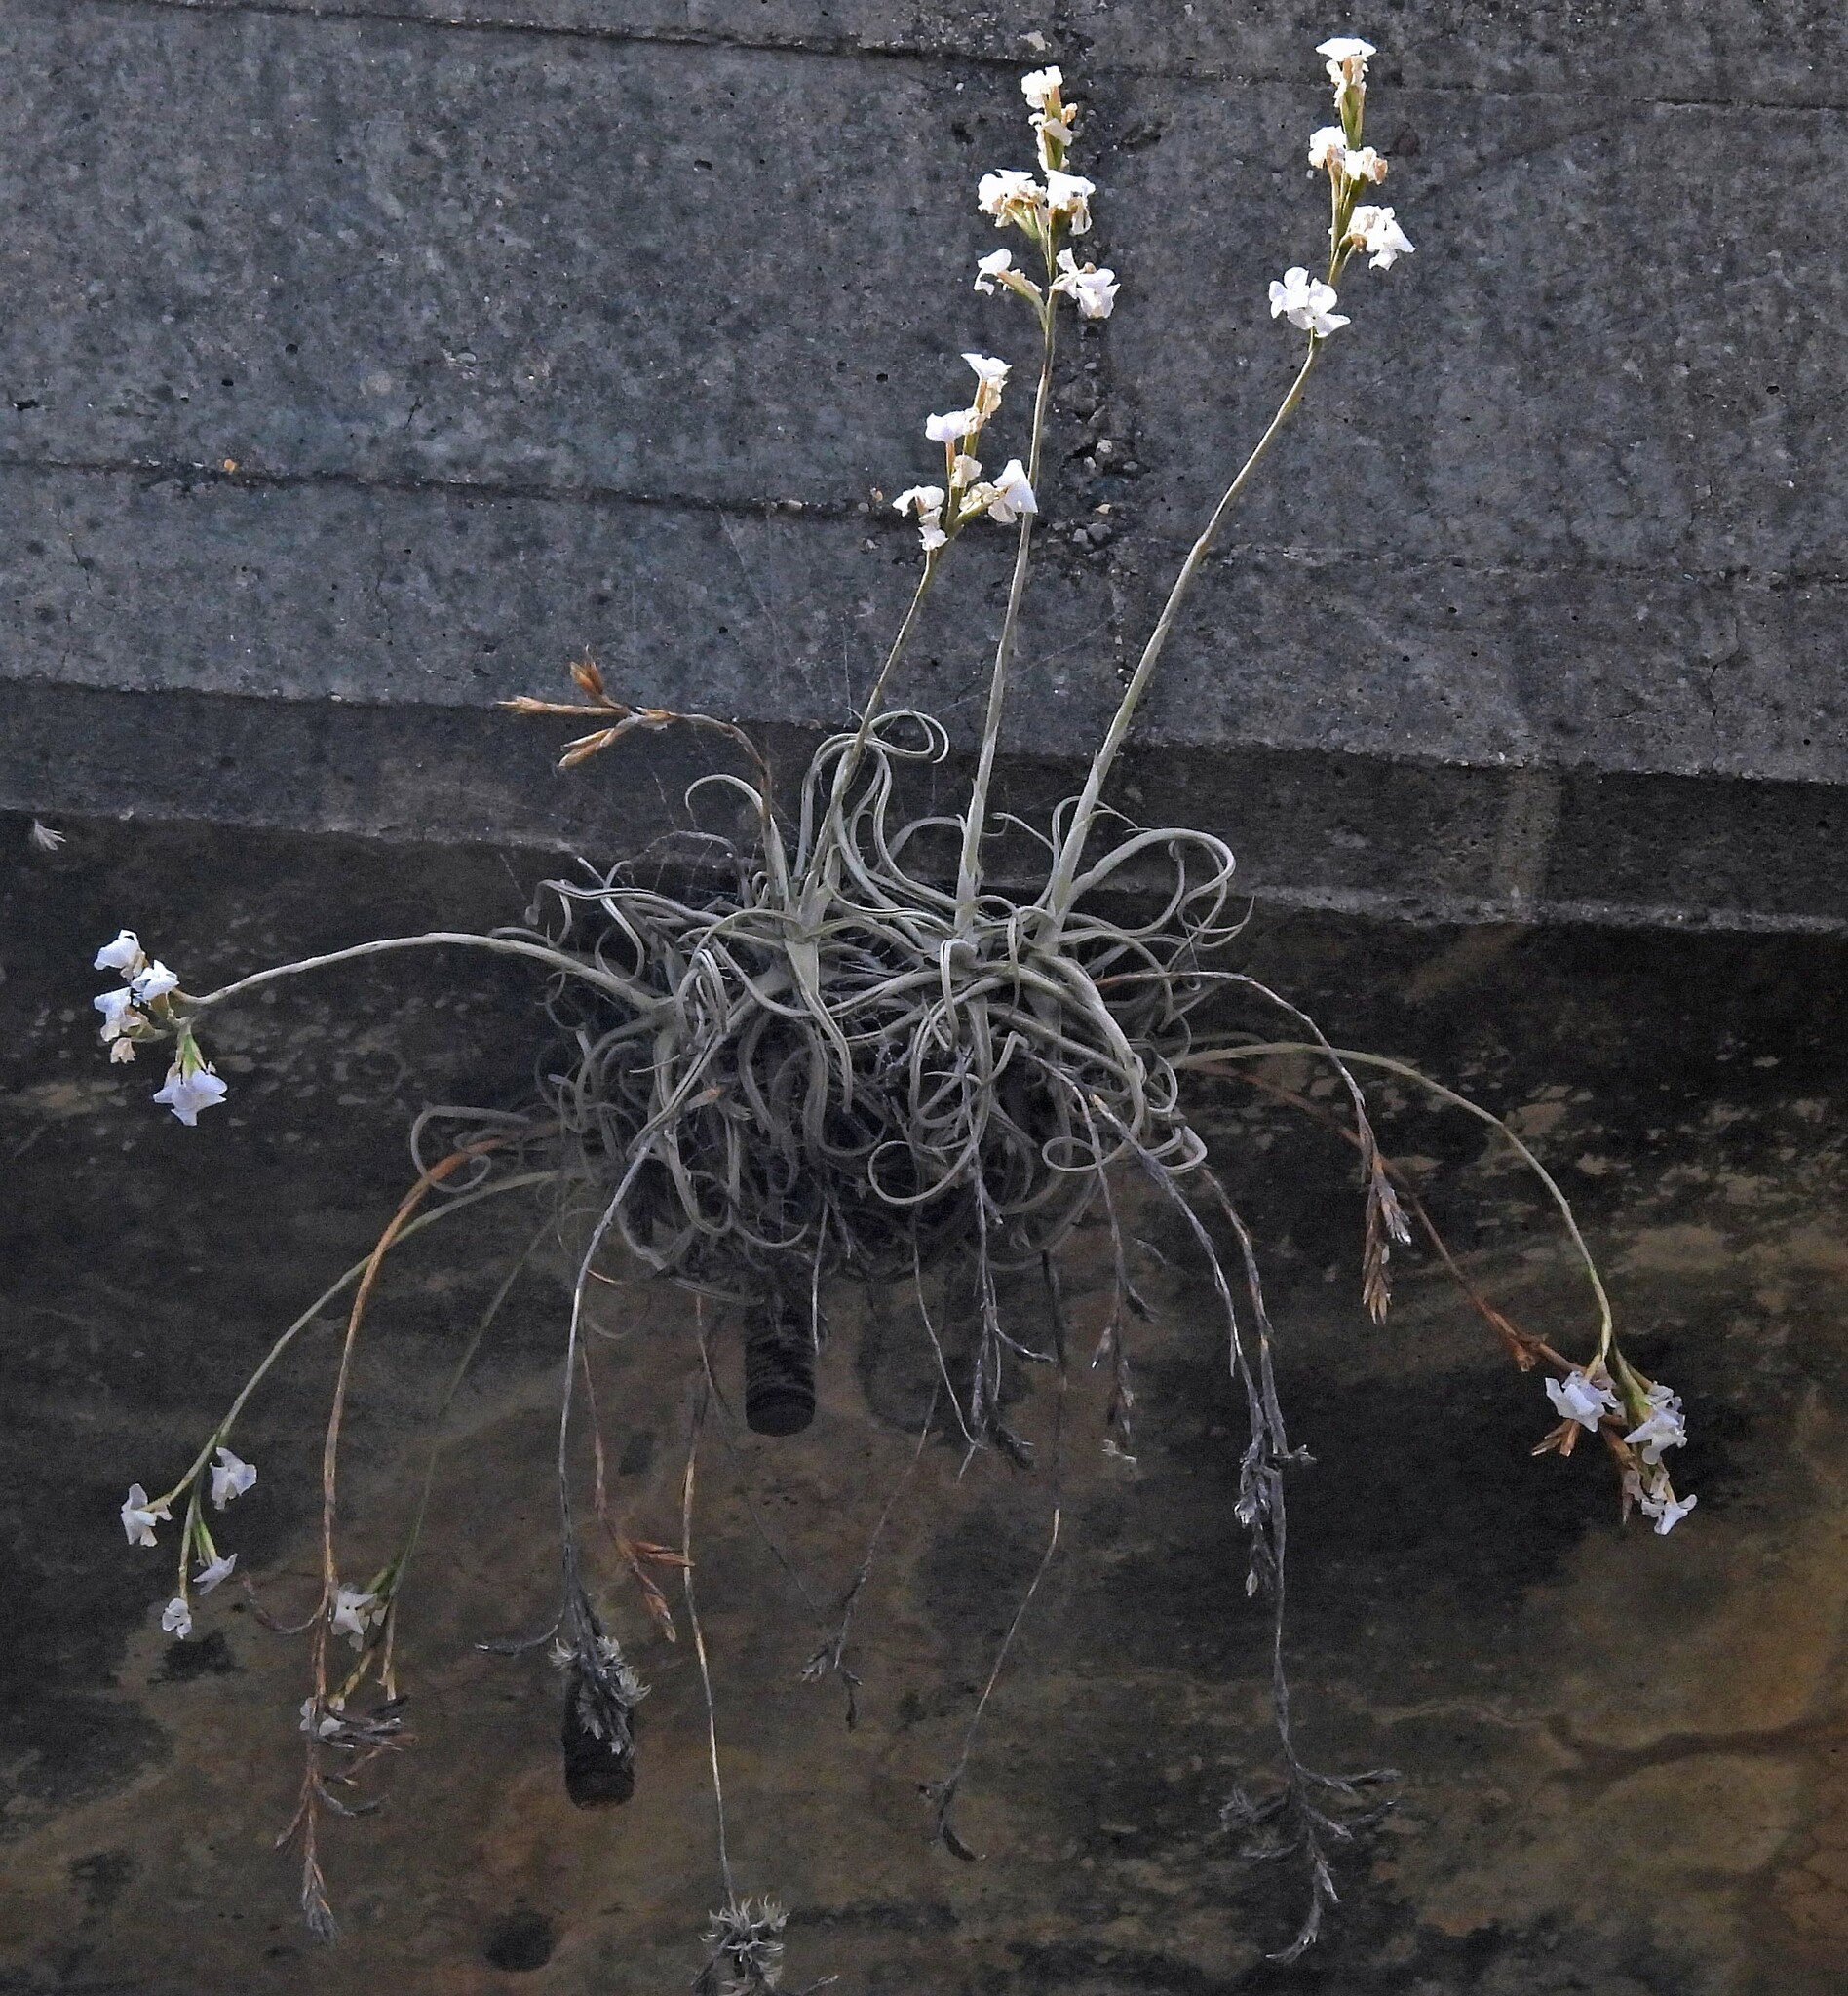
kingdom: Plantae
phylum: Tracheophyta
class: Liliopsida
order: Poales
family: Bromeliaceae
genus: Tillandsia
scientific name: Tillandsia streptocarpa
